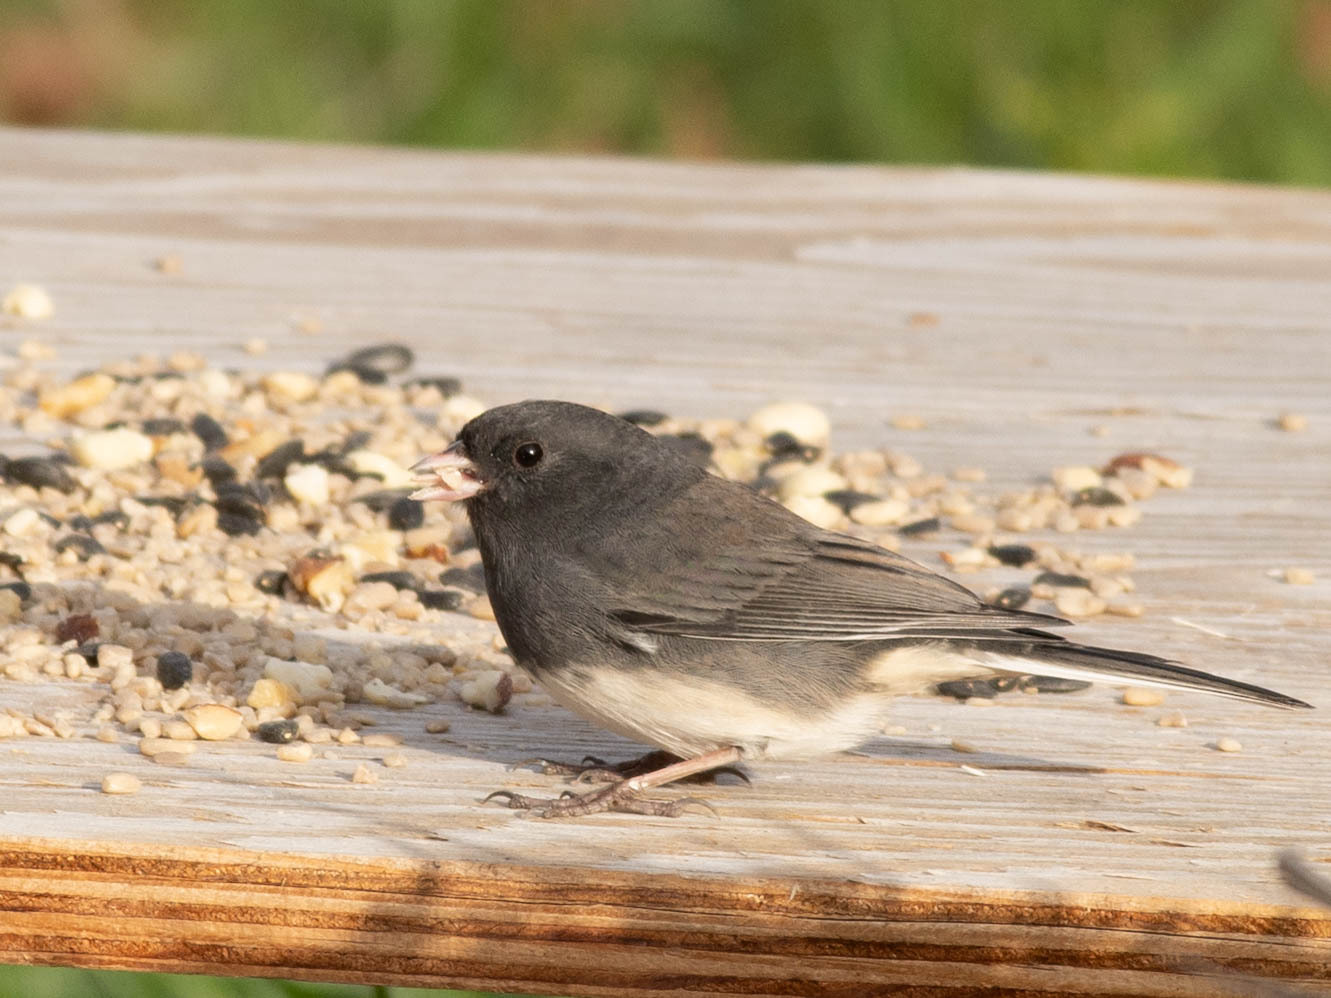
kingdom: Animalia
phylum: Chordata
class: Aves
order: Passeriformes
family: Passerellidae
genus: Junco
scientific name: Junco hyemalis
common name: Dark-eyed junco
